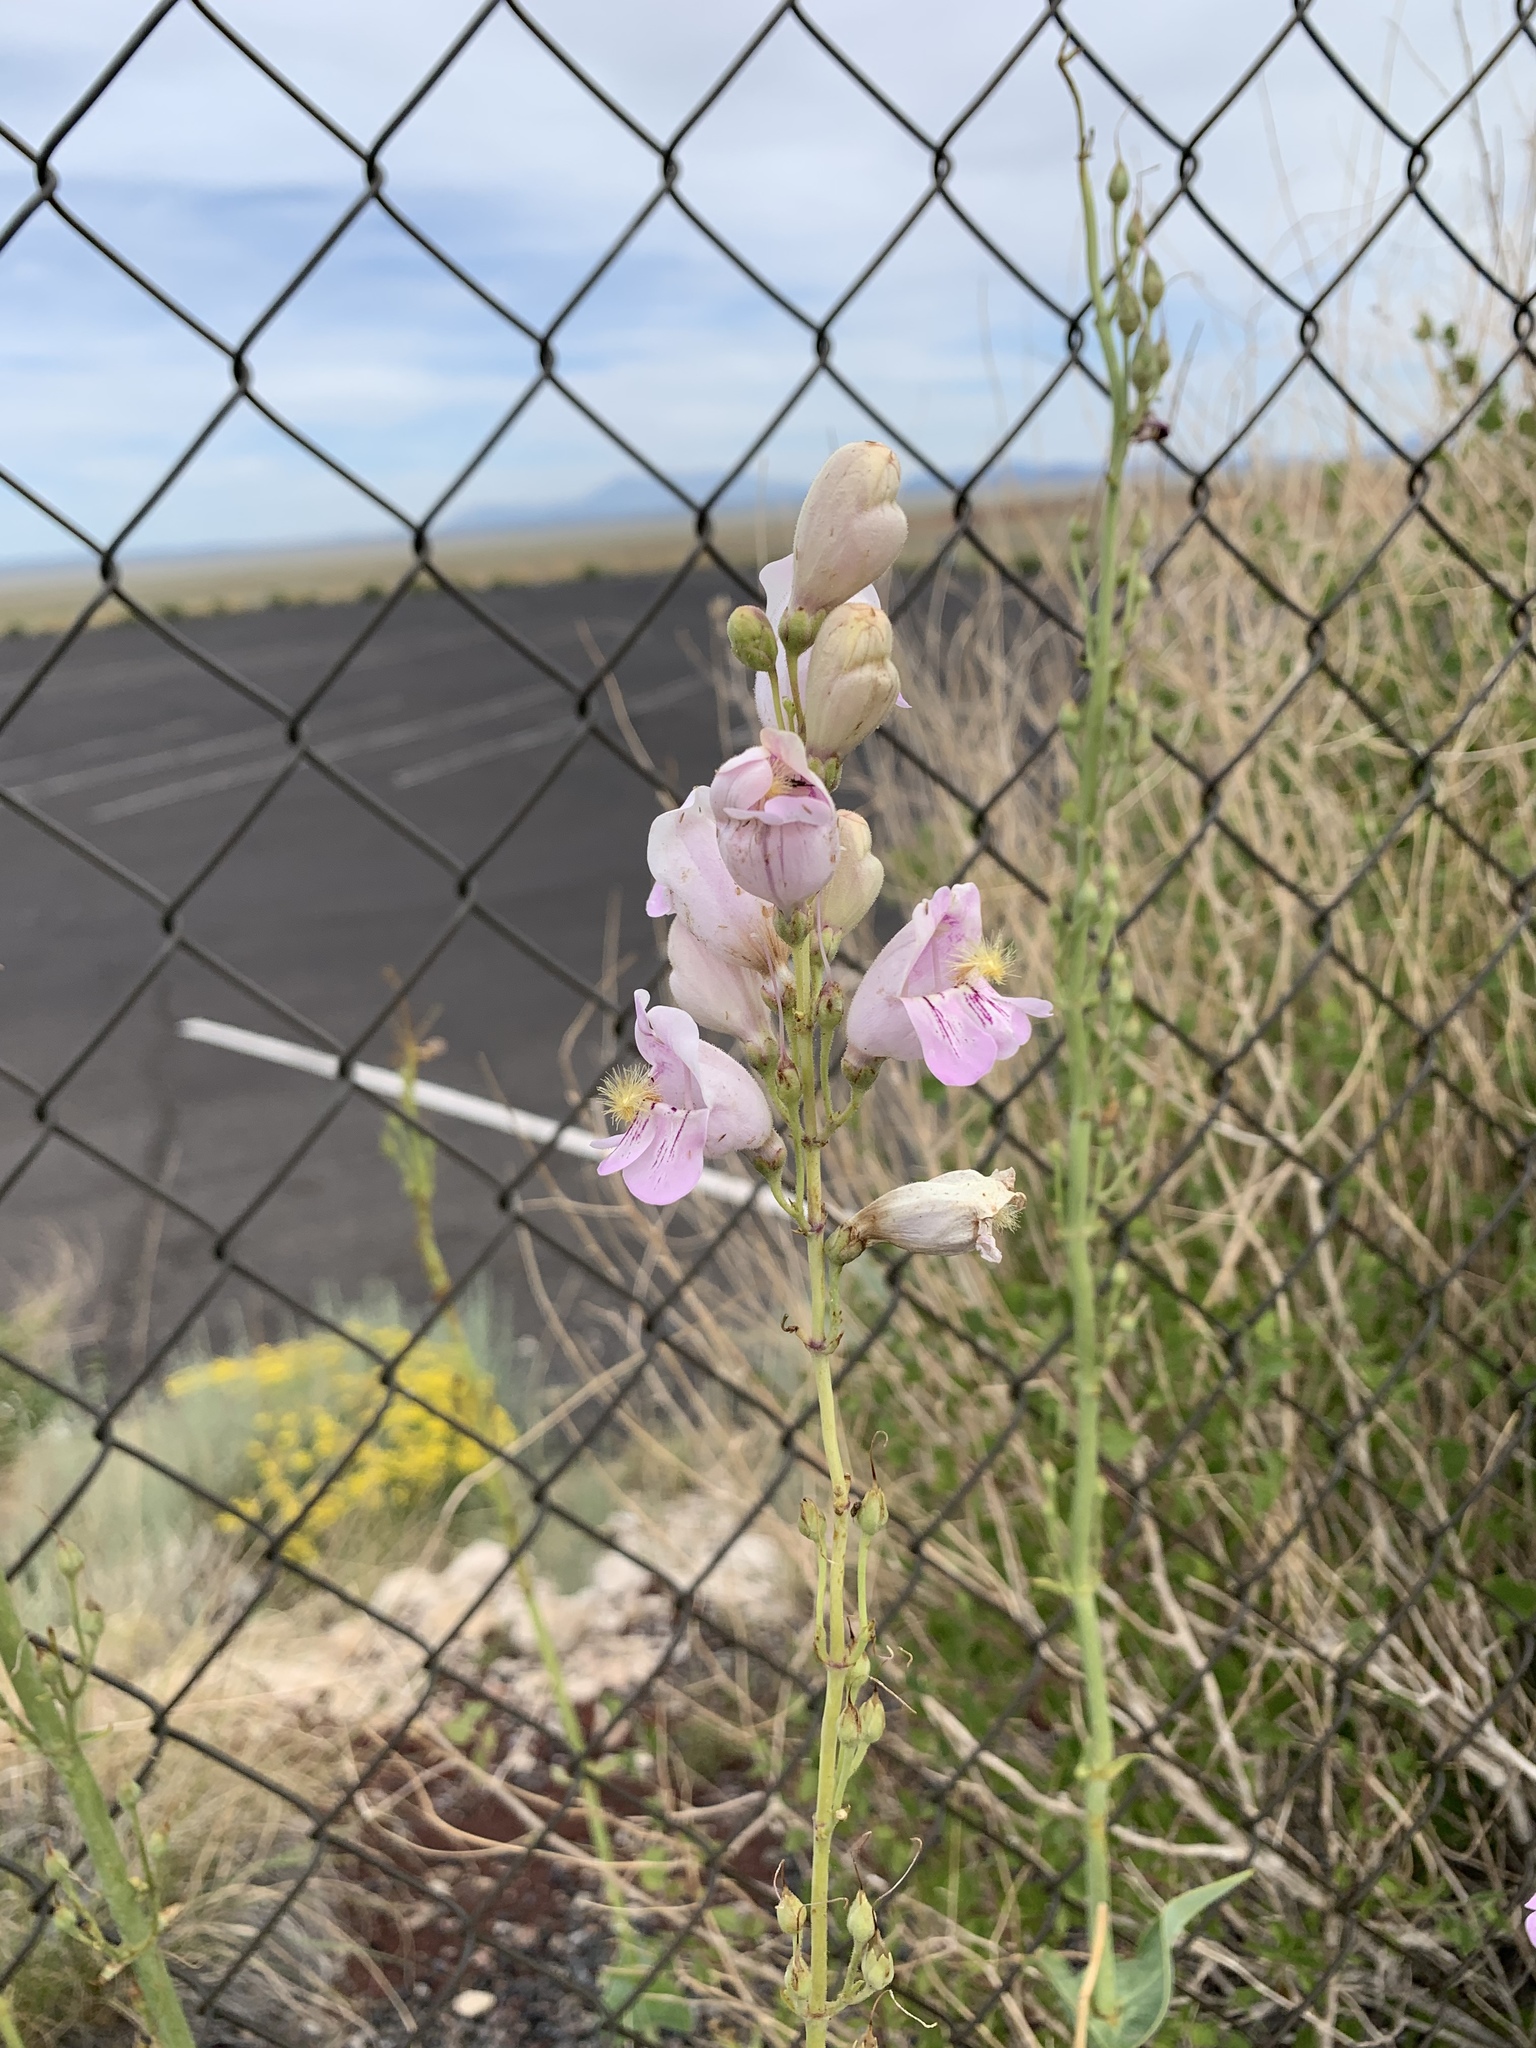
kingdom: Plantae
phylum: Tracheophyta
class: Magnoliopsida
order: Lamiales
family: Plantaginaceae
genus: Penstemon
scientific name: Penstemon palmeri
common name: Palmer penstemon
